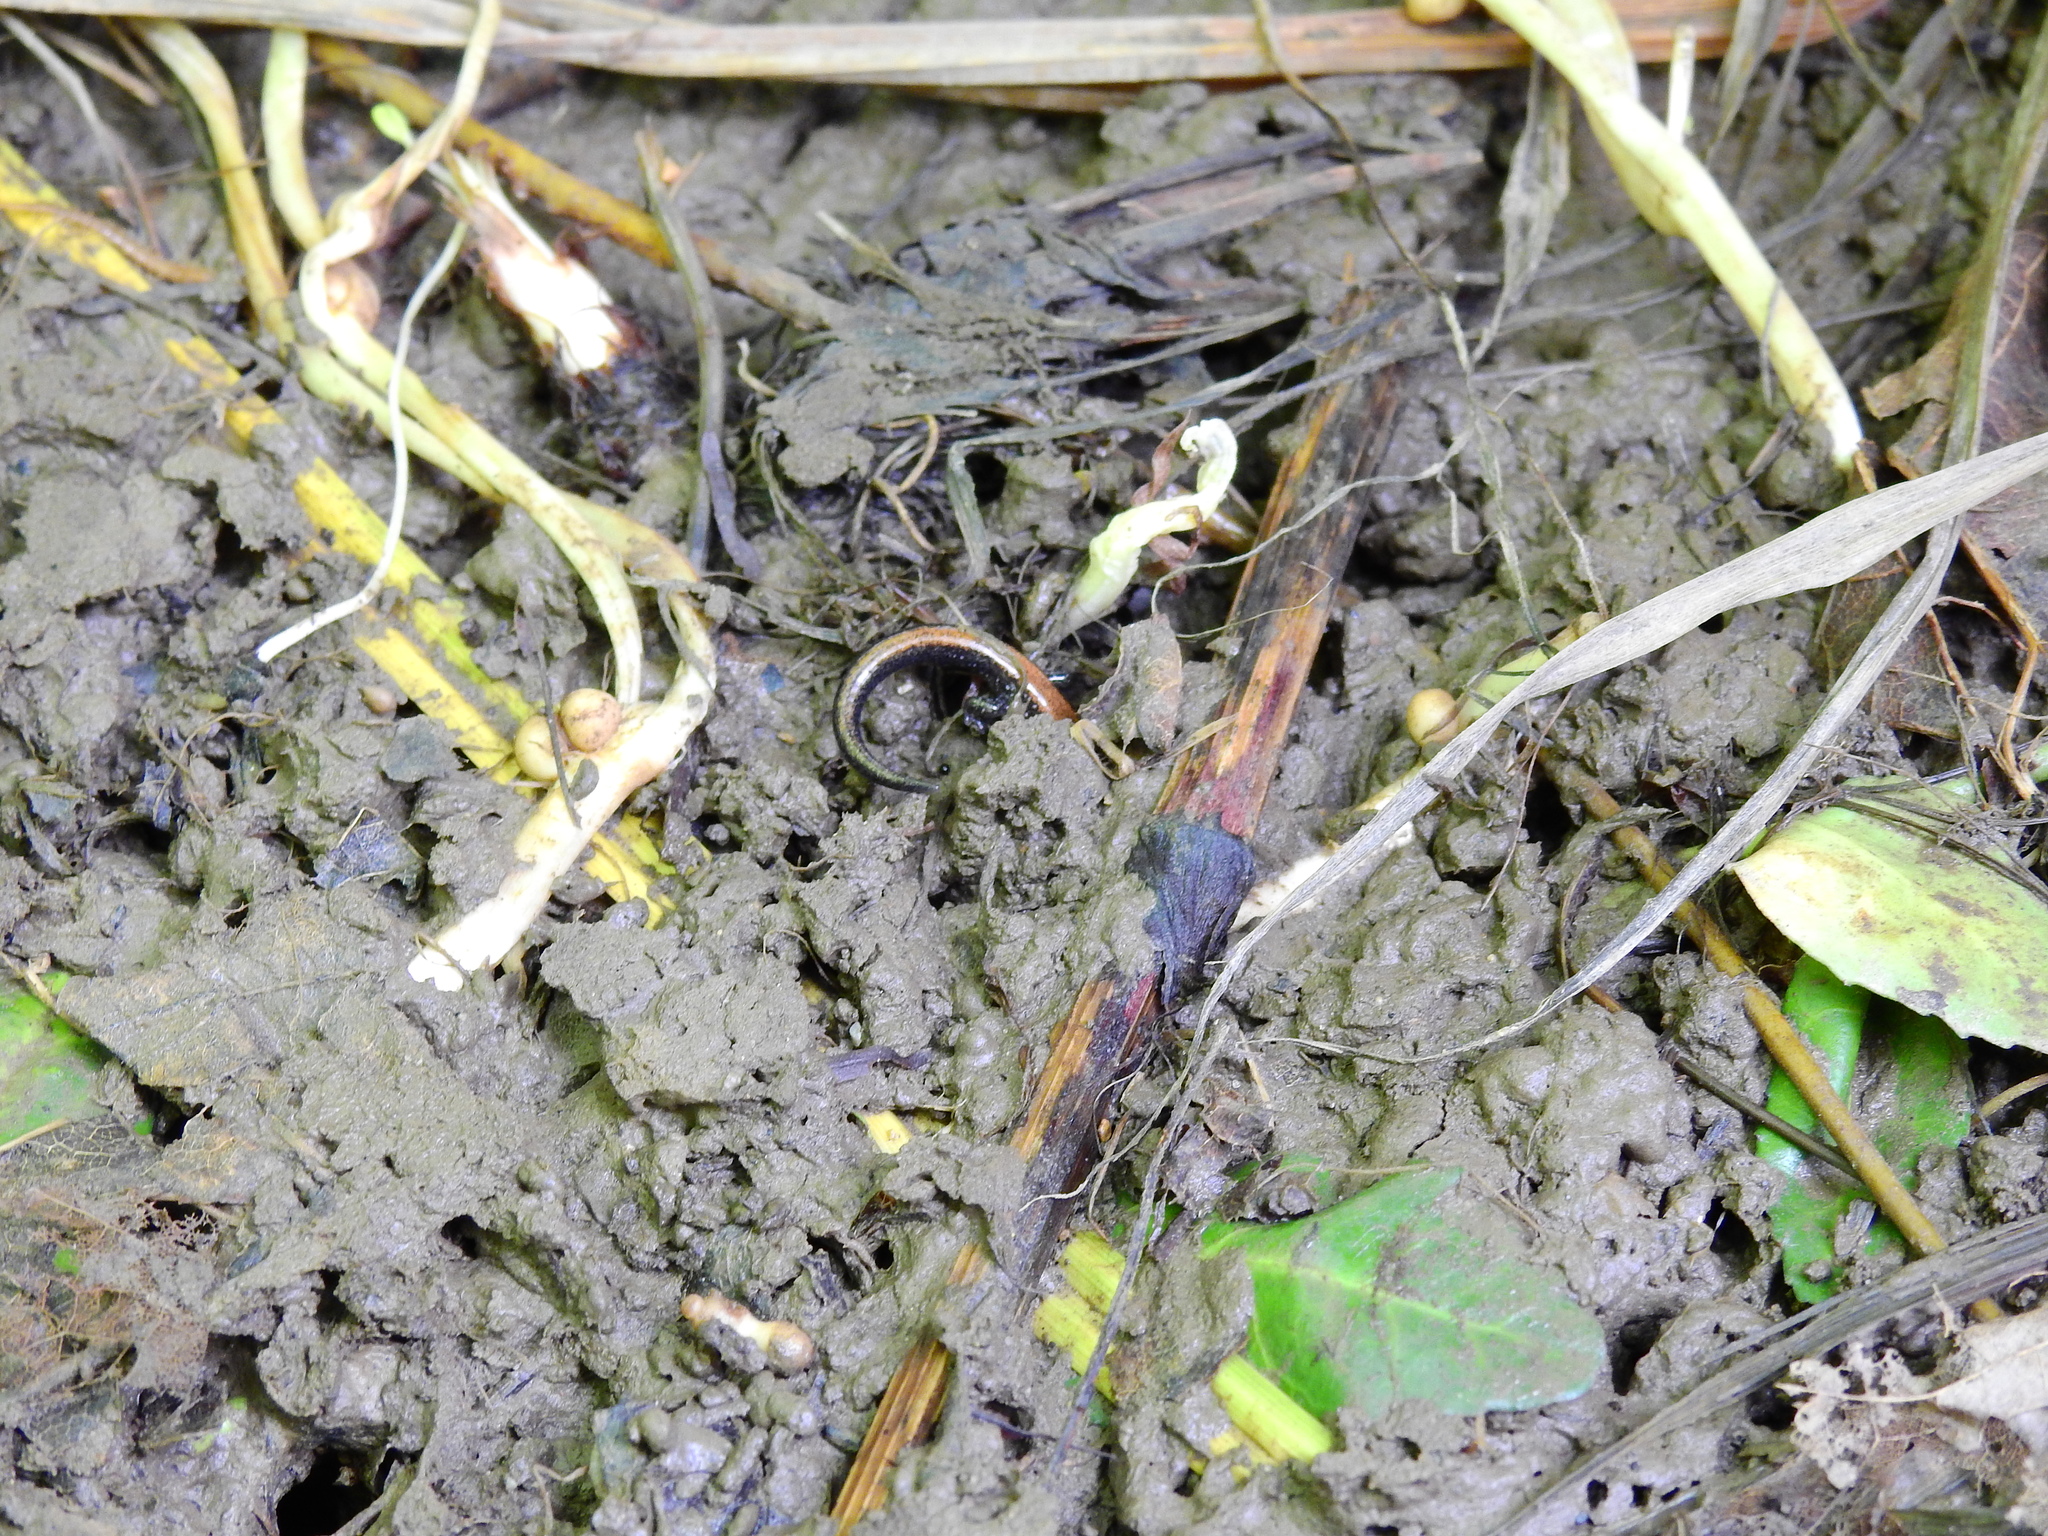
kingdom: Animalia
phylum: Chordata
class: Amphibia
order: Caudata
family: Plethodontidae
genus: Plethodon
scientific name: Plethodon cinereus
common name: Redback salamander
